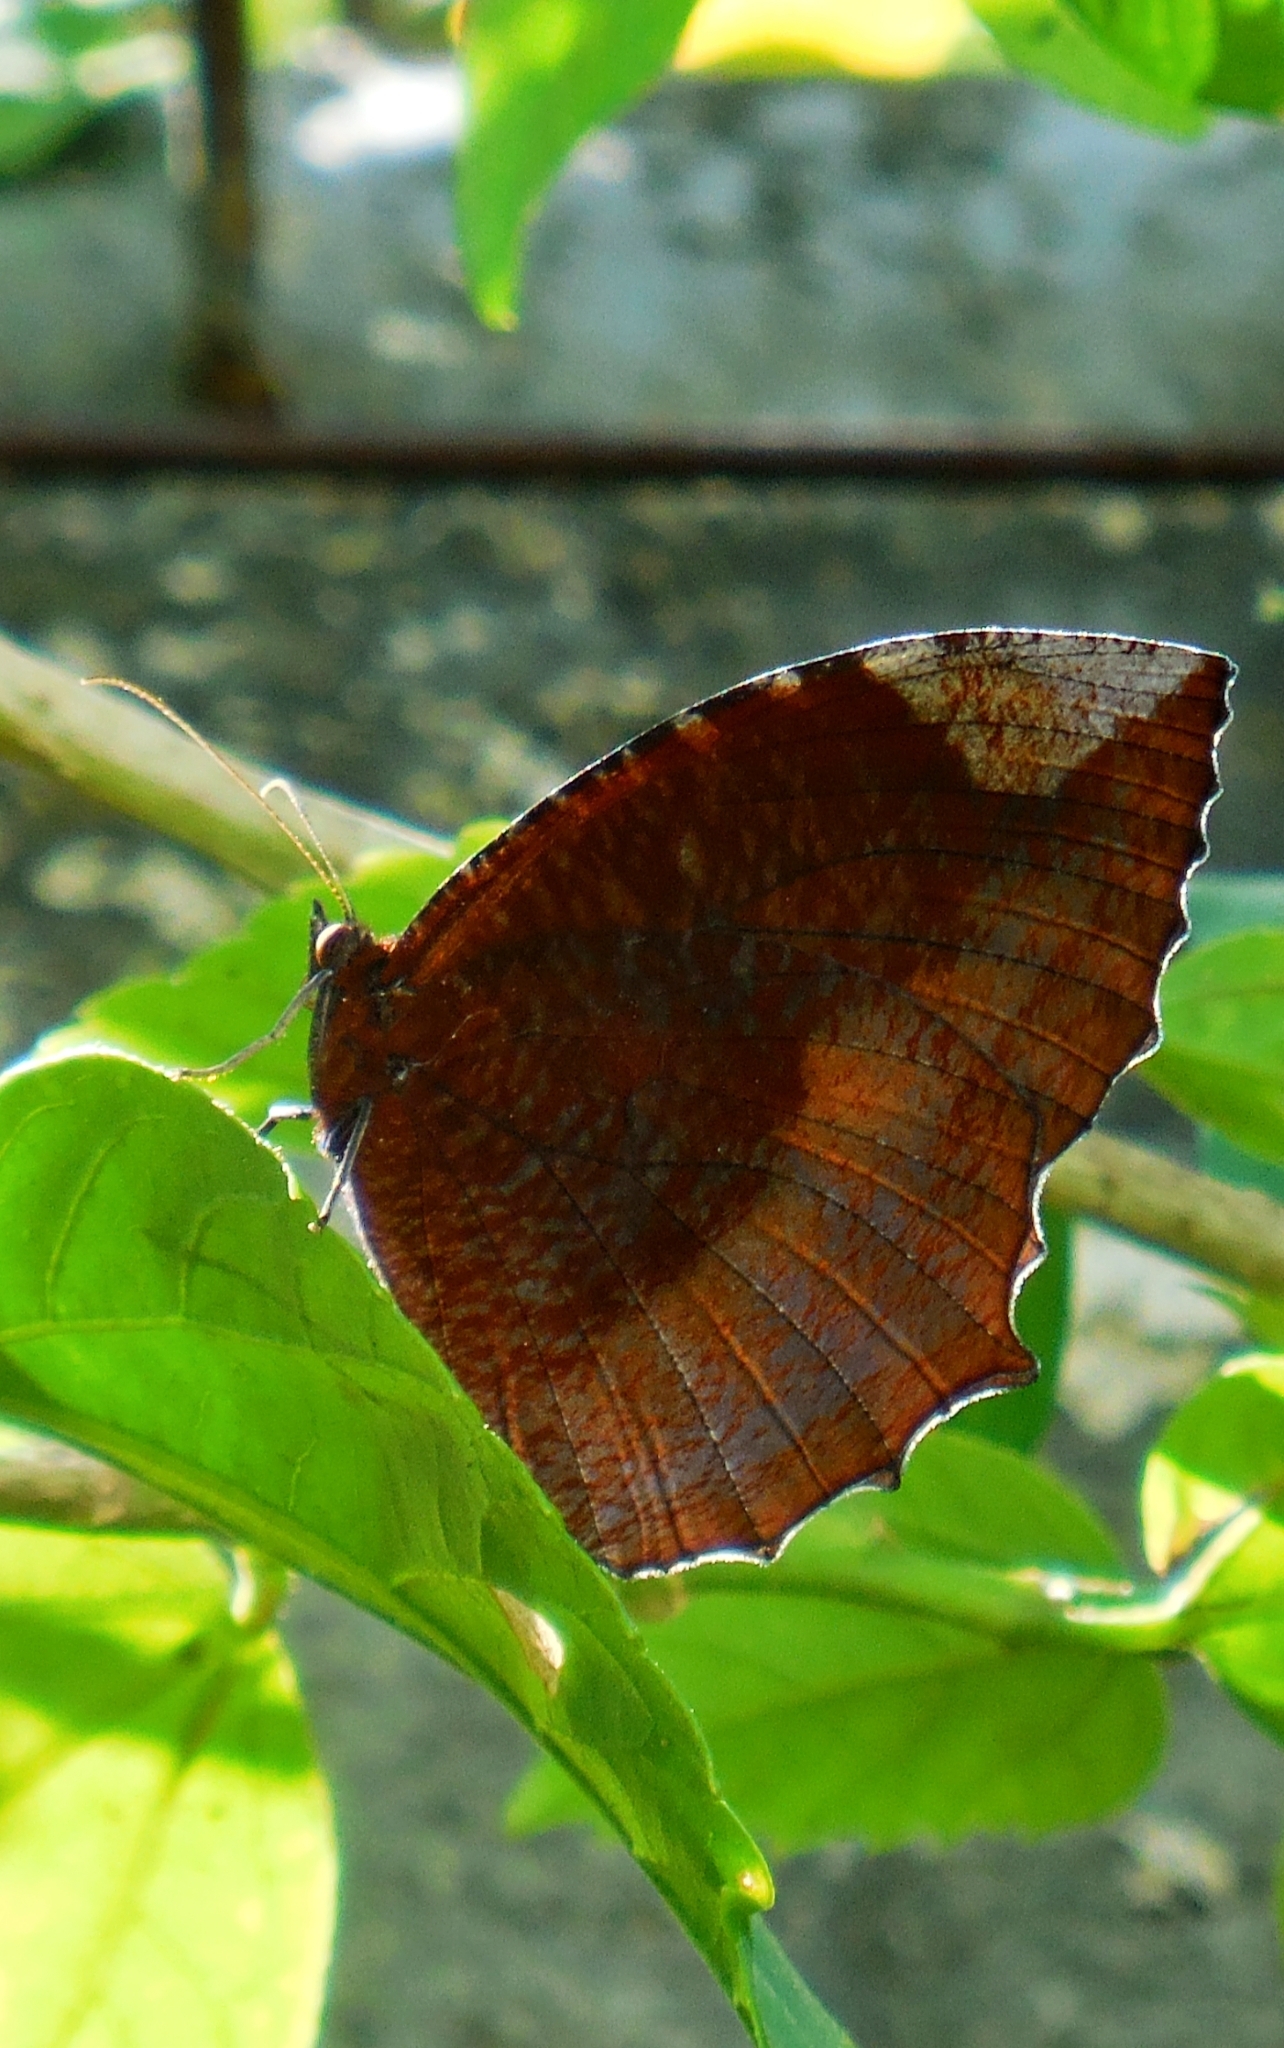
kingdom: Animalia
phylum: Arthropoda
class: Insecta
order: Lepidoptera
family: Nymphalidae
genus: Elymnias
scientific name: Elymnias hypermnestra
